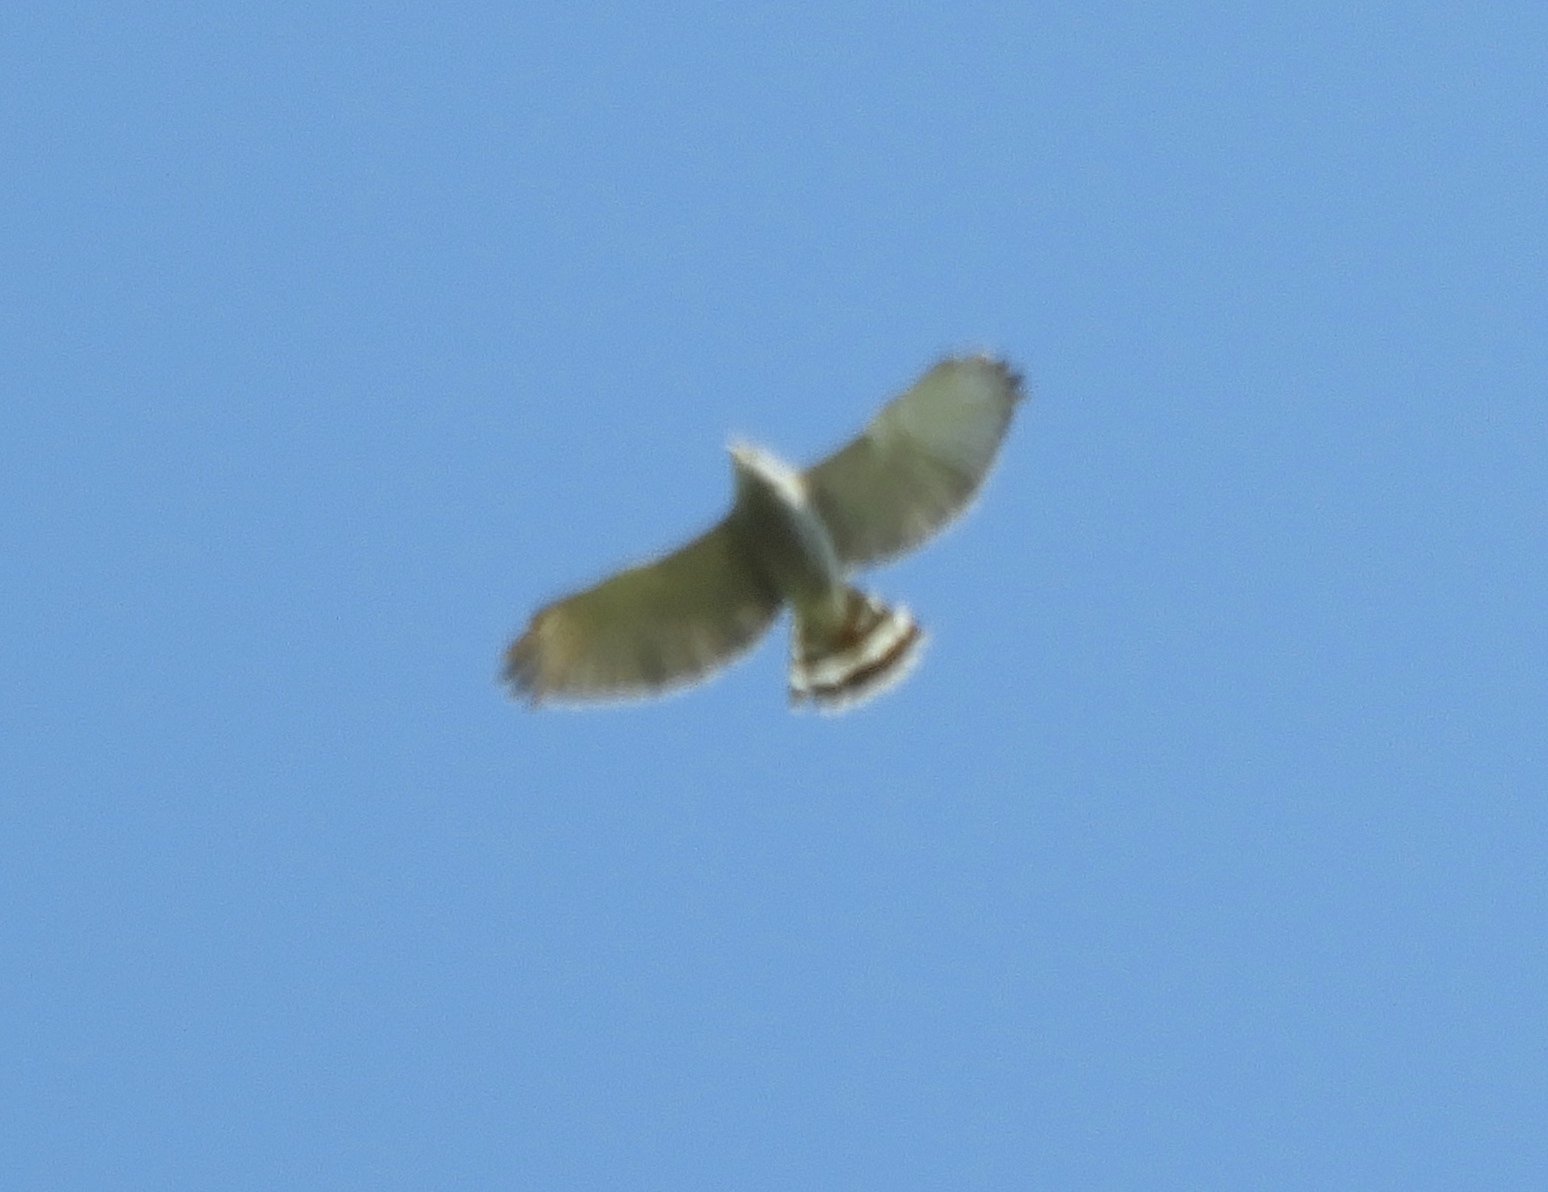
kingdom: Animalia
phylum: Chordata
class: Aves
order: Accipitriformes
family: Accipitridae
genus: Buteo
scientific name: Buteo nitidus
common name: Grey-lined hawk
